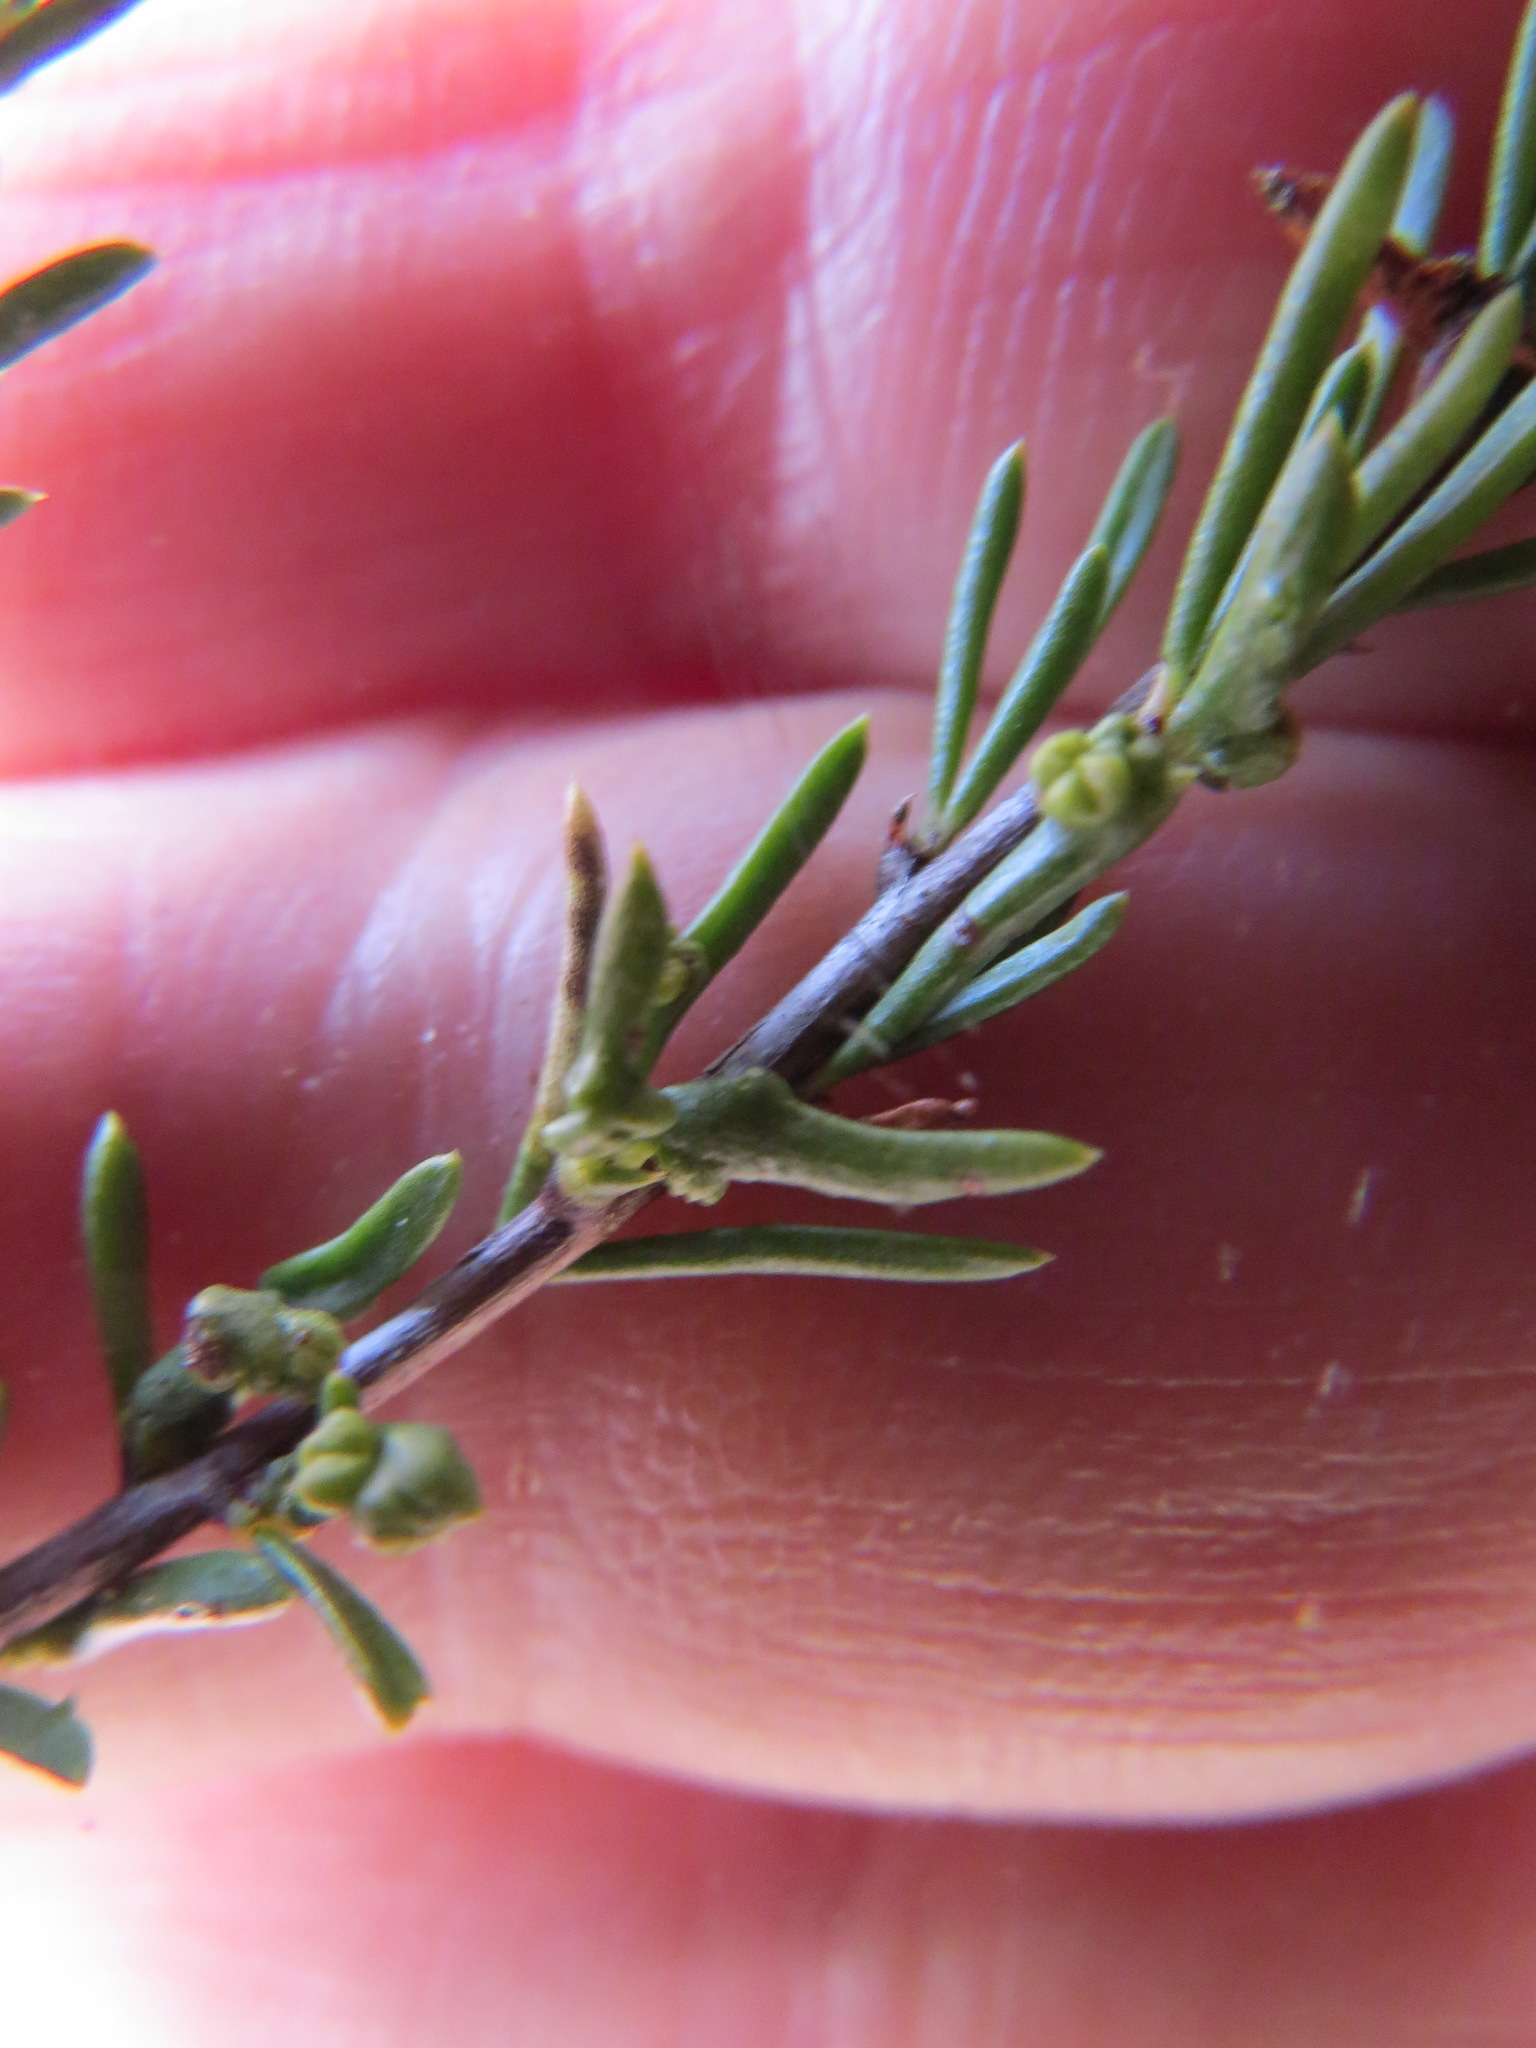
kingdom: Animalia
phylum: Arthropoda
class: Arachnida
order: Trombidiformes
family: Eriophyidae
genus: Eriophyes
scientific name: Eriophyes
